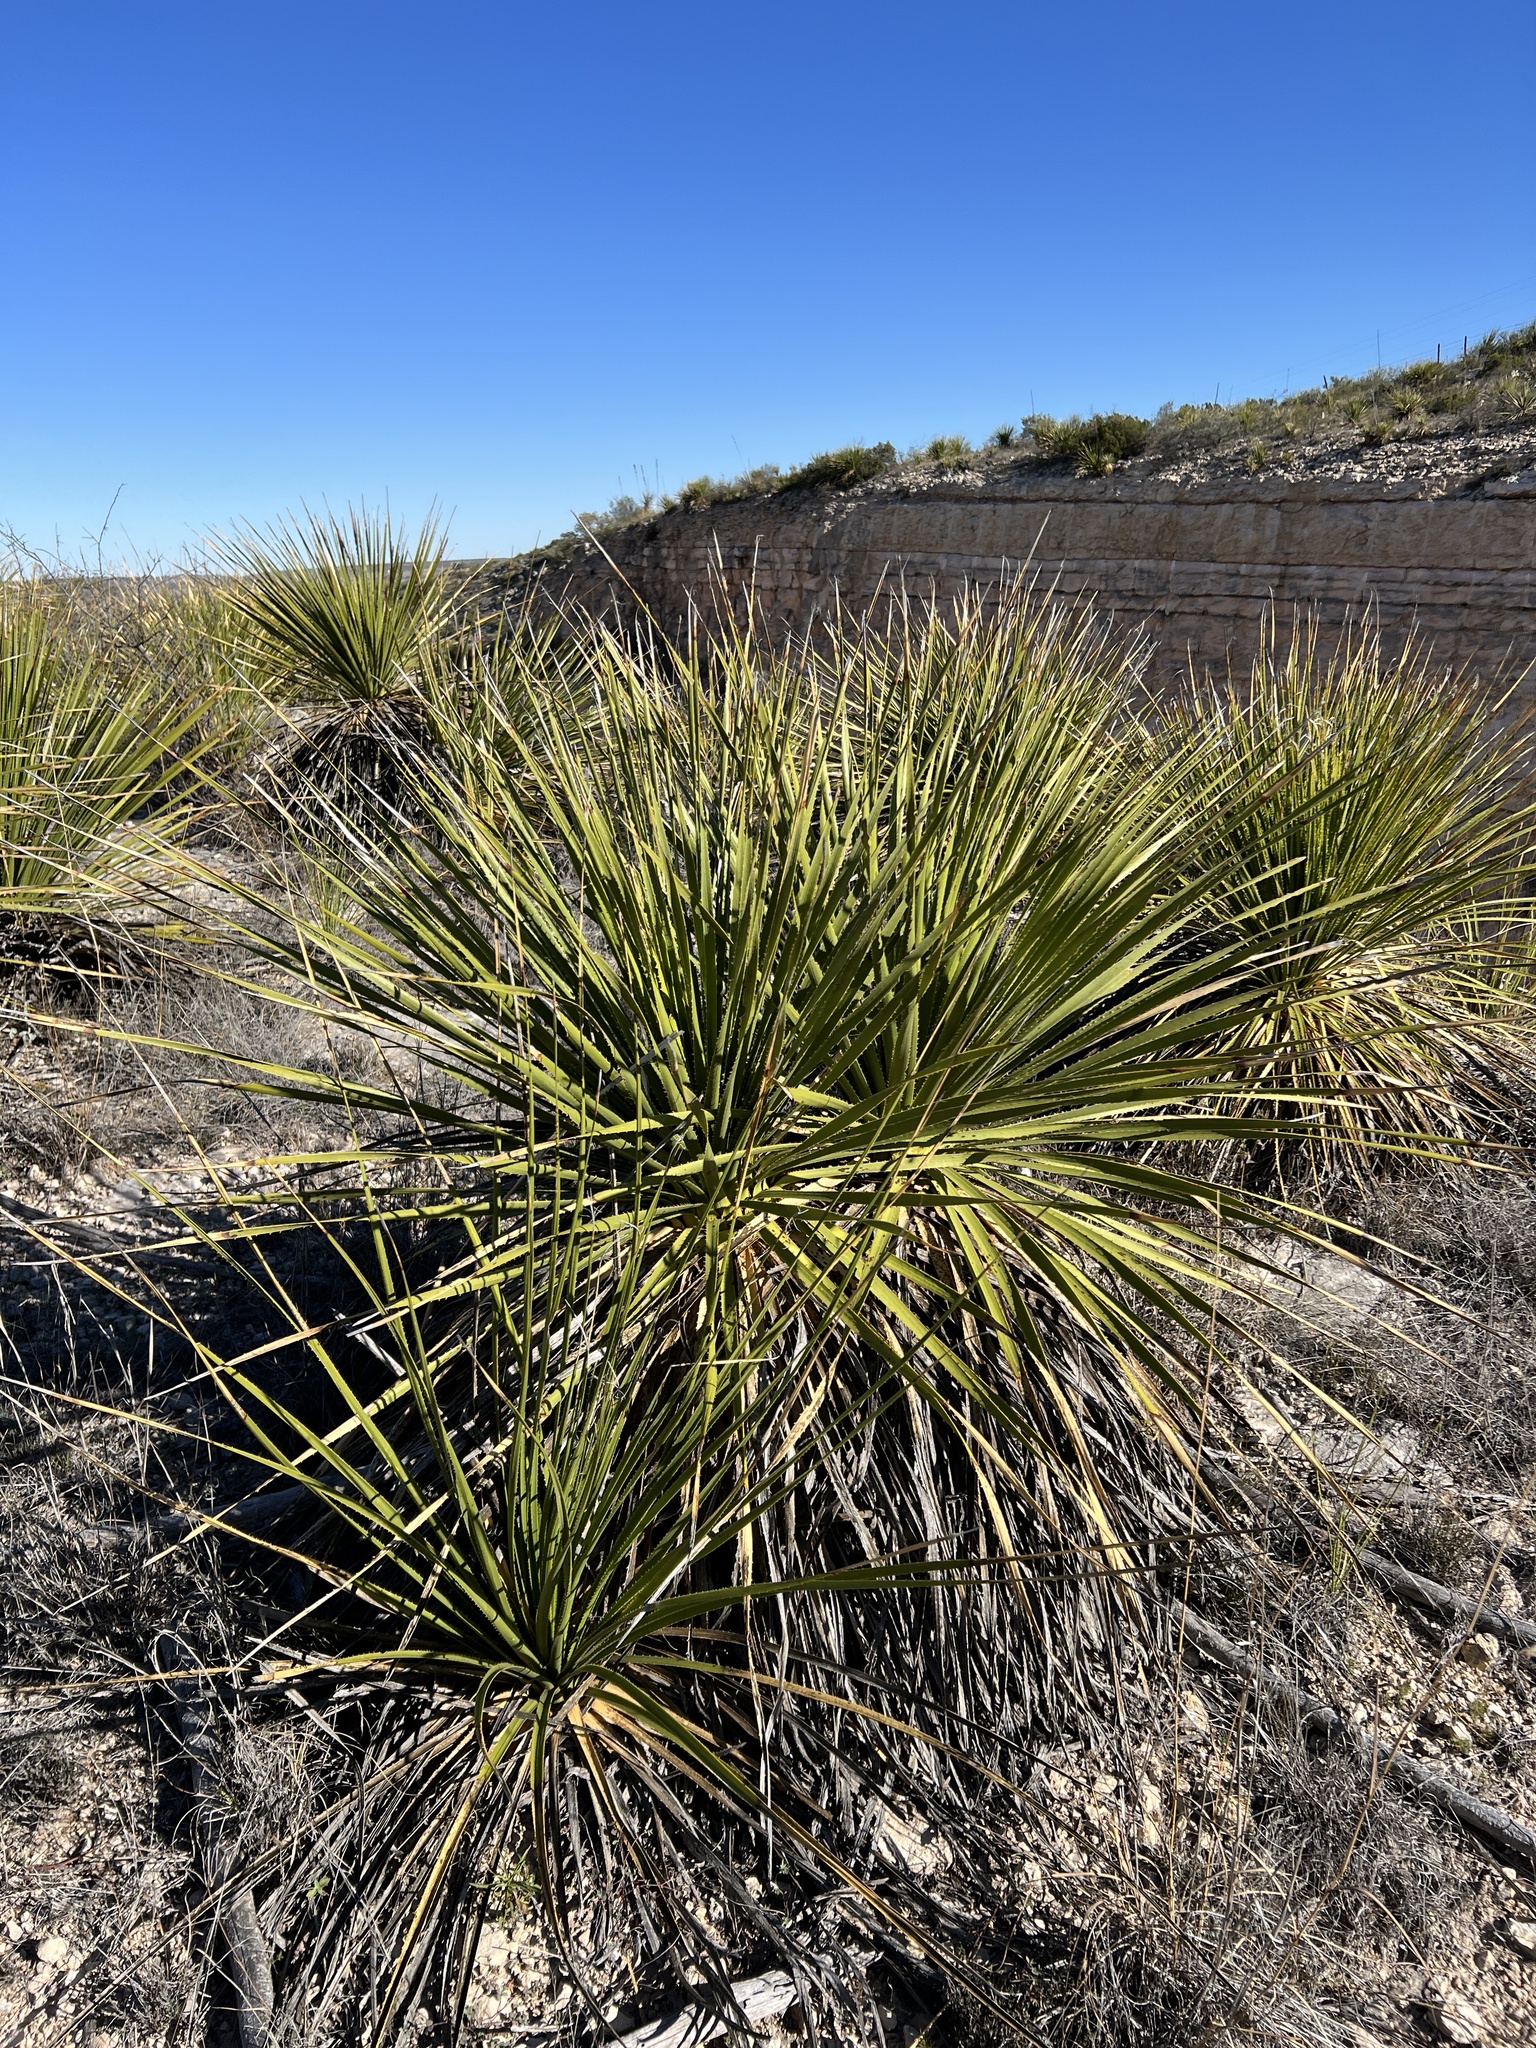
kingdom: Plantae
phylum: Tracheophyta
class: Liliopsida
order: Asparagales
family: Asparagaceae
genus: Dasylirion
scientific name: Dasylirion texanum
